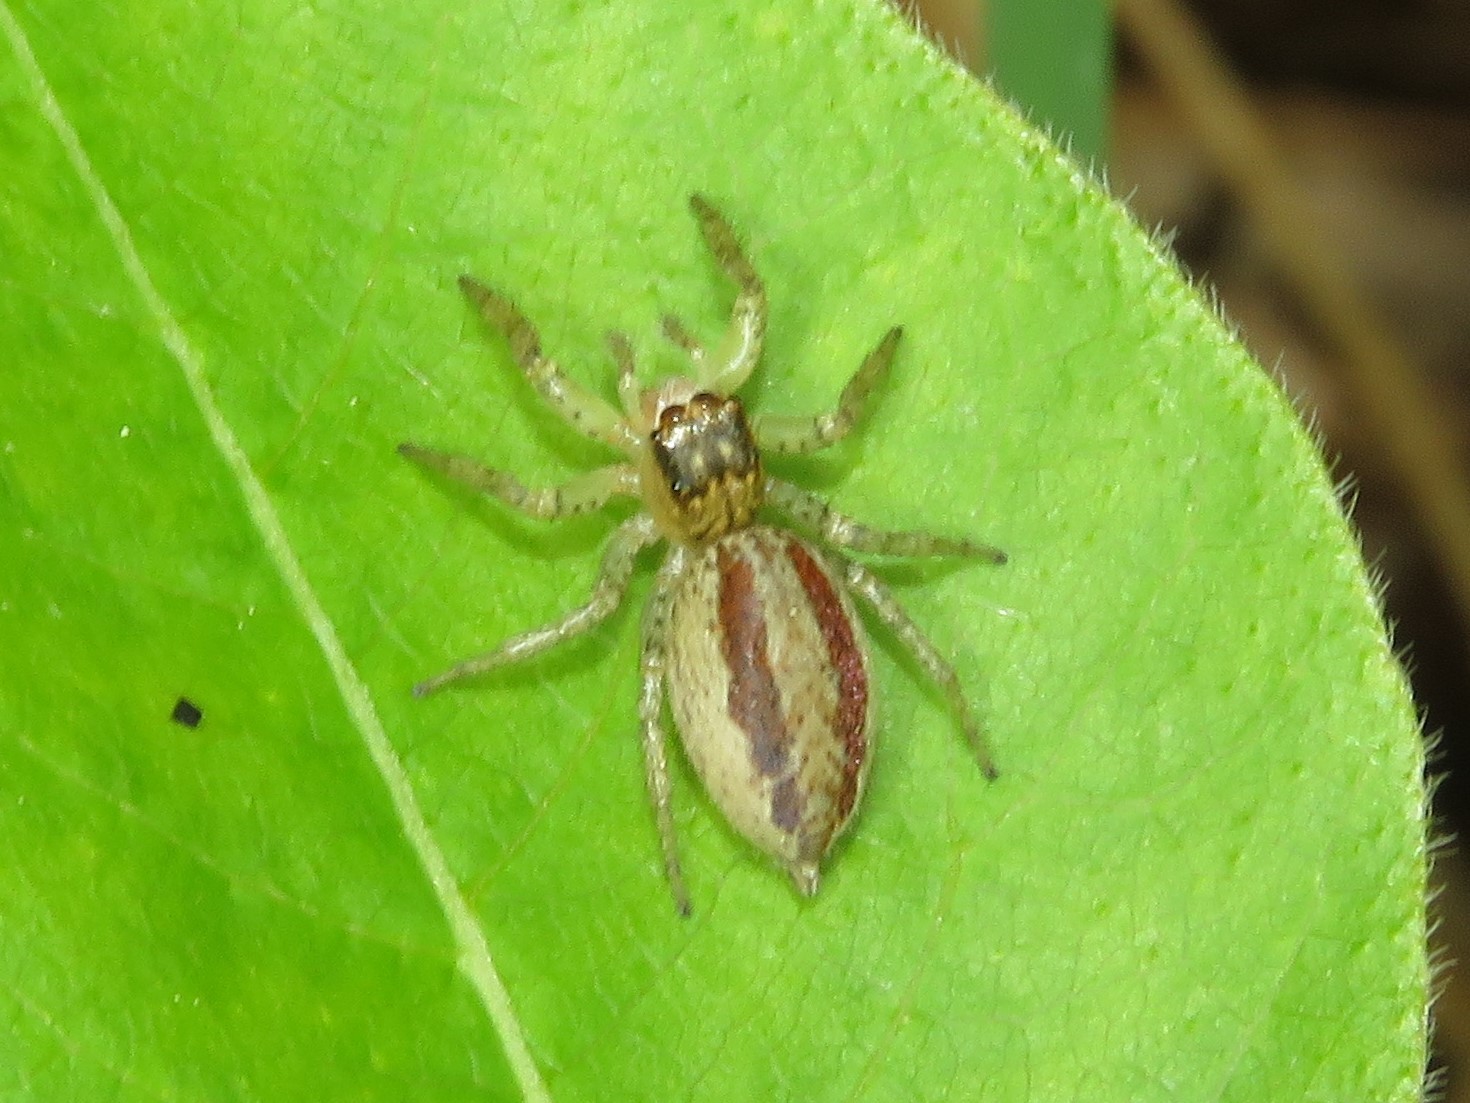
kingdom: Animalia
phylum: Arthropoda
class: Arachnida
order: Araneae
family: Salticidae
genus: Maevia
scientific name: Maevia inclemens
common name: Dimorphic jumper
